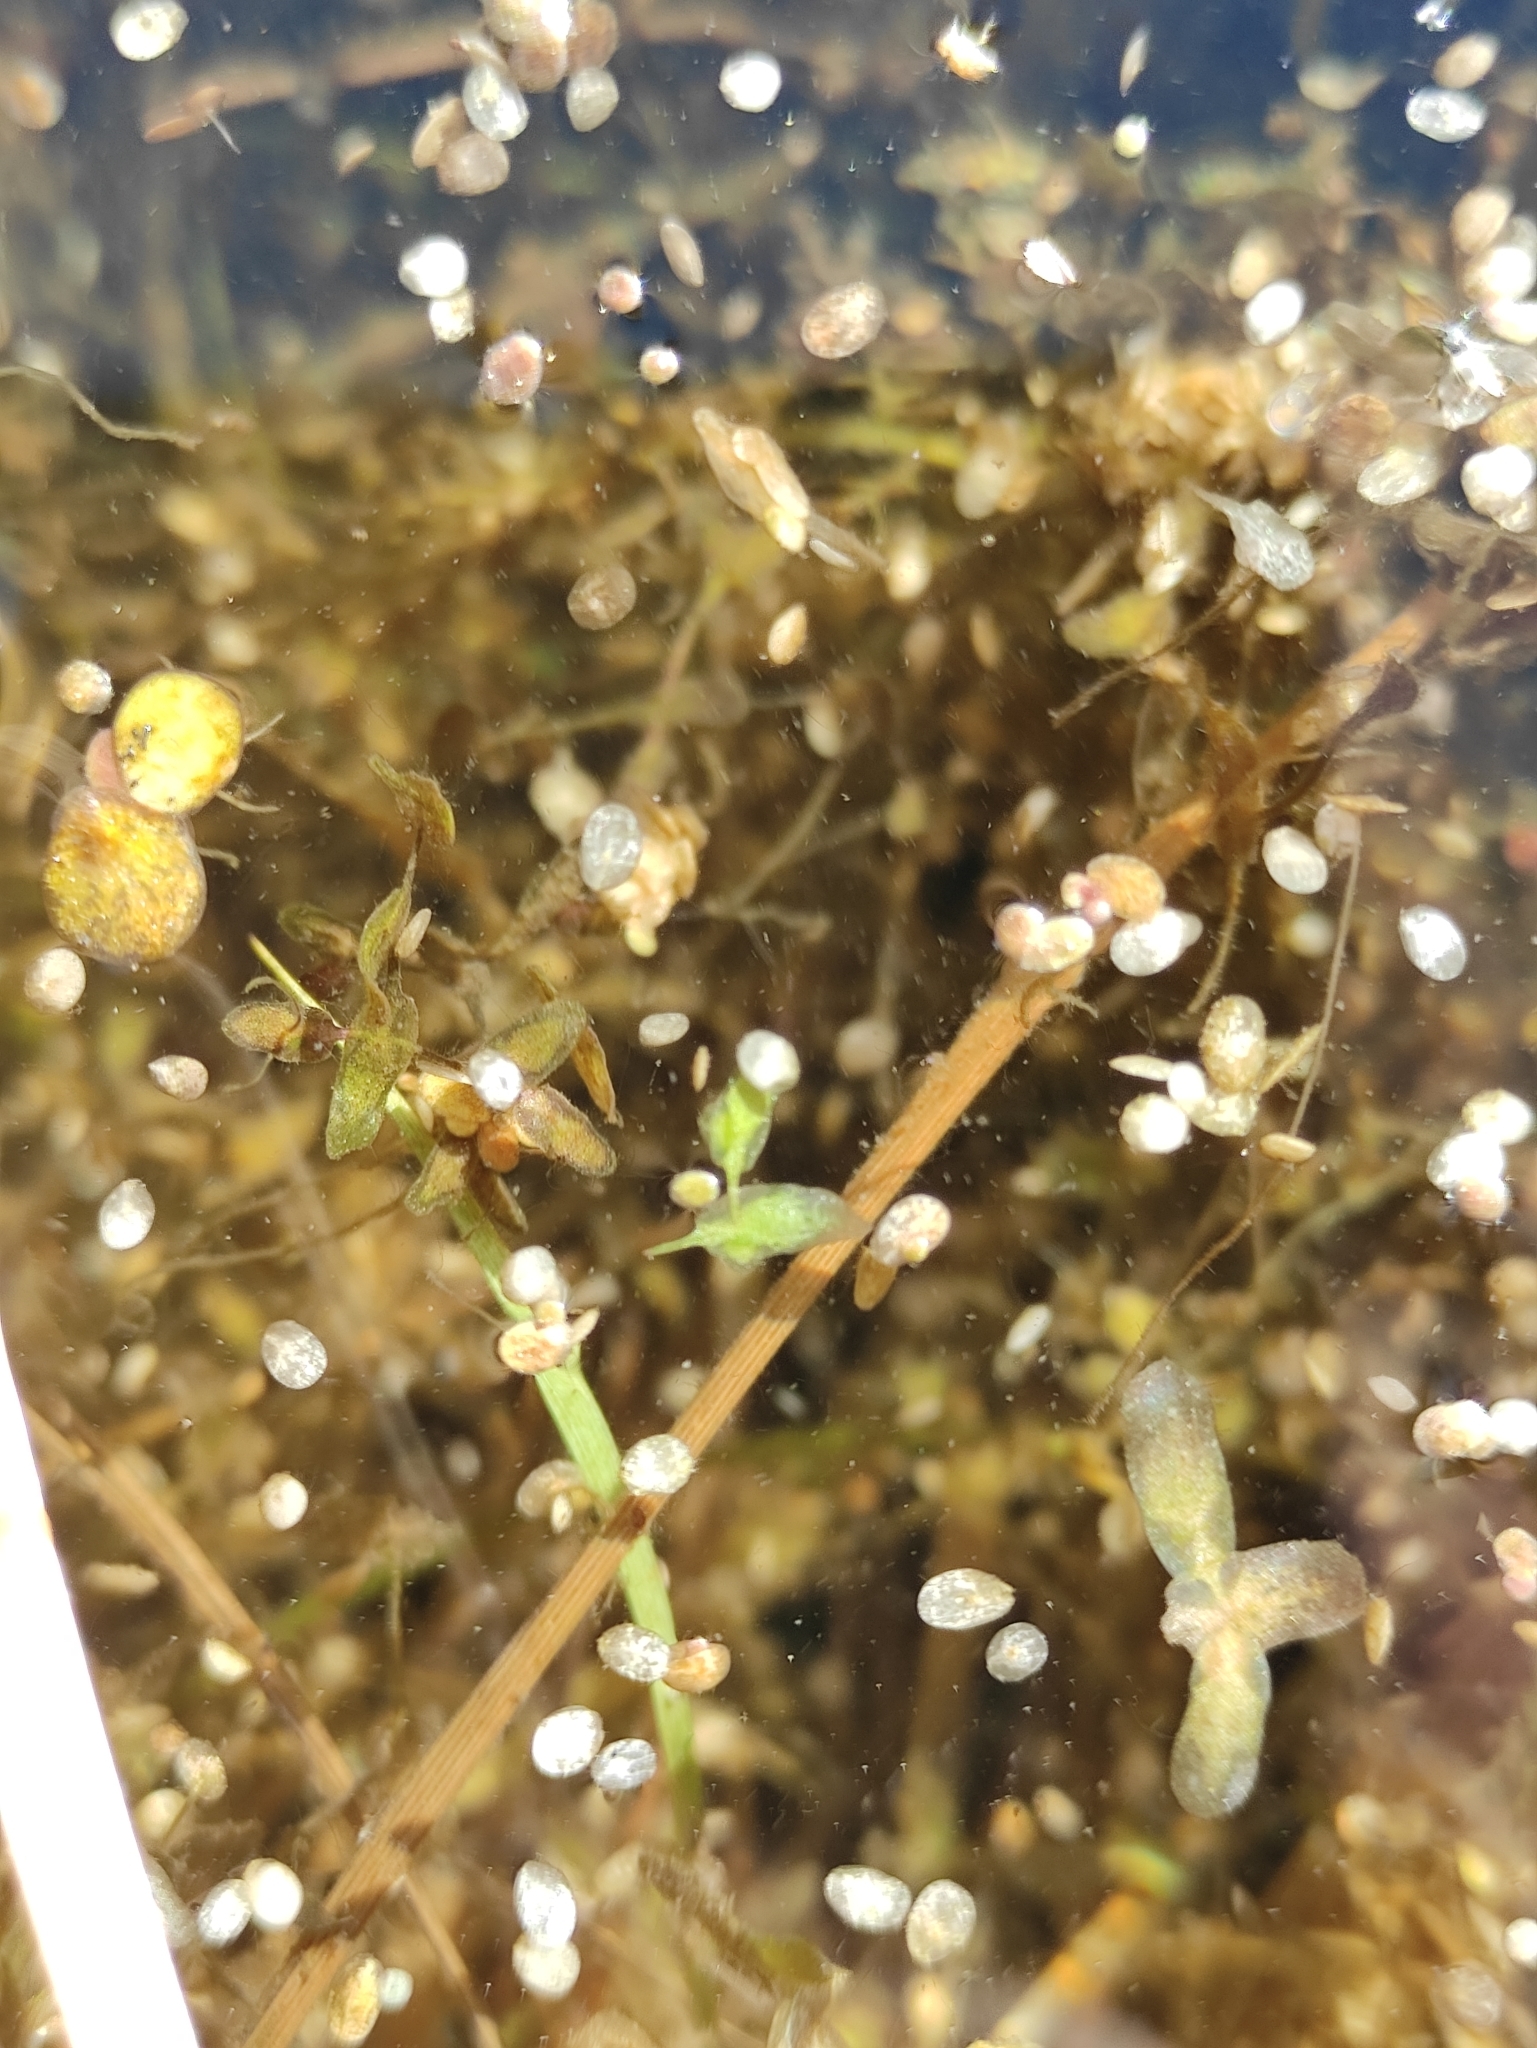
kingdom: Plantae
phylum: Tracheophyta
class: Liliopsida
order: Alismatales
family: Araceae
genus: Lemna
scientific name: Lemna trisulca
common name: Ivy-leaved duckweed
